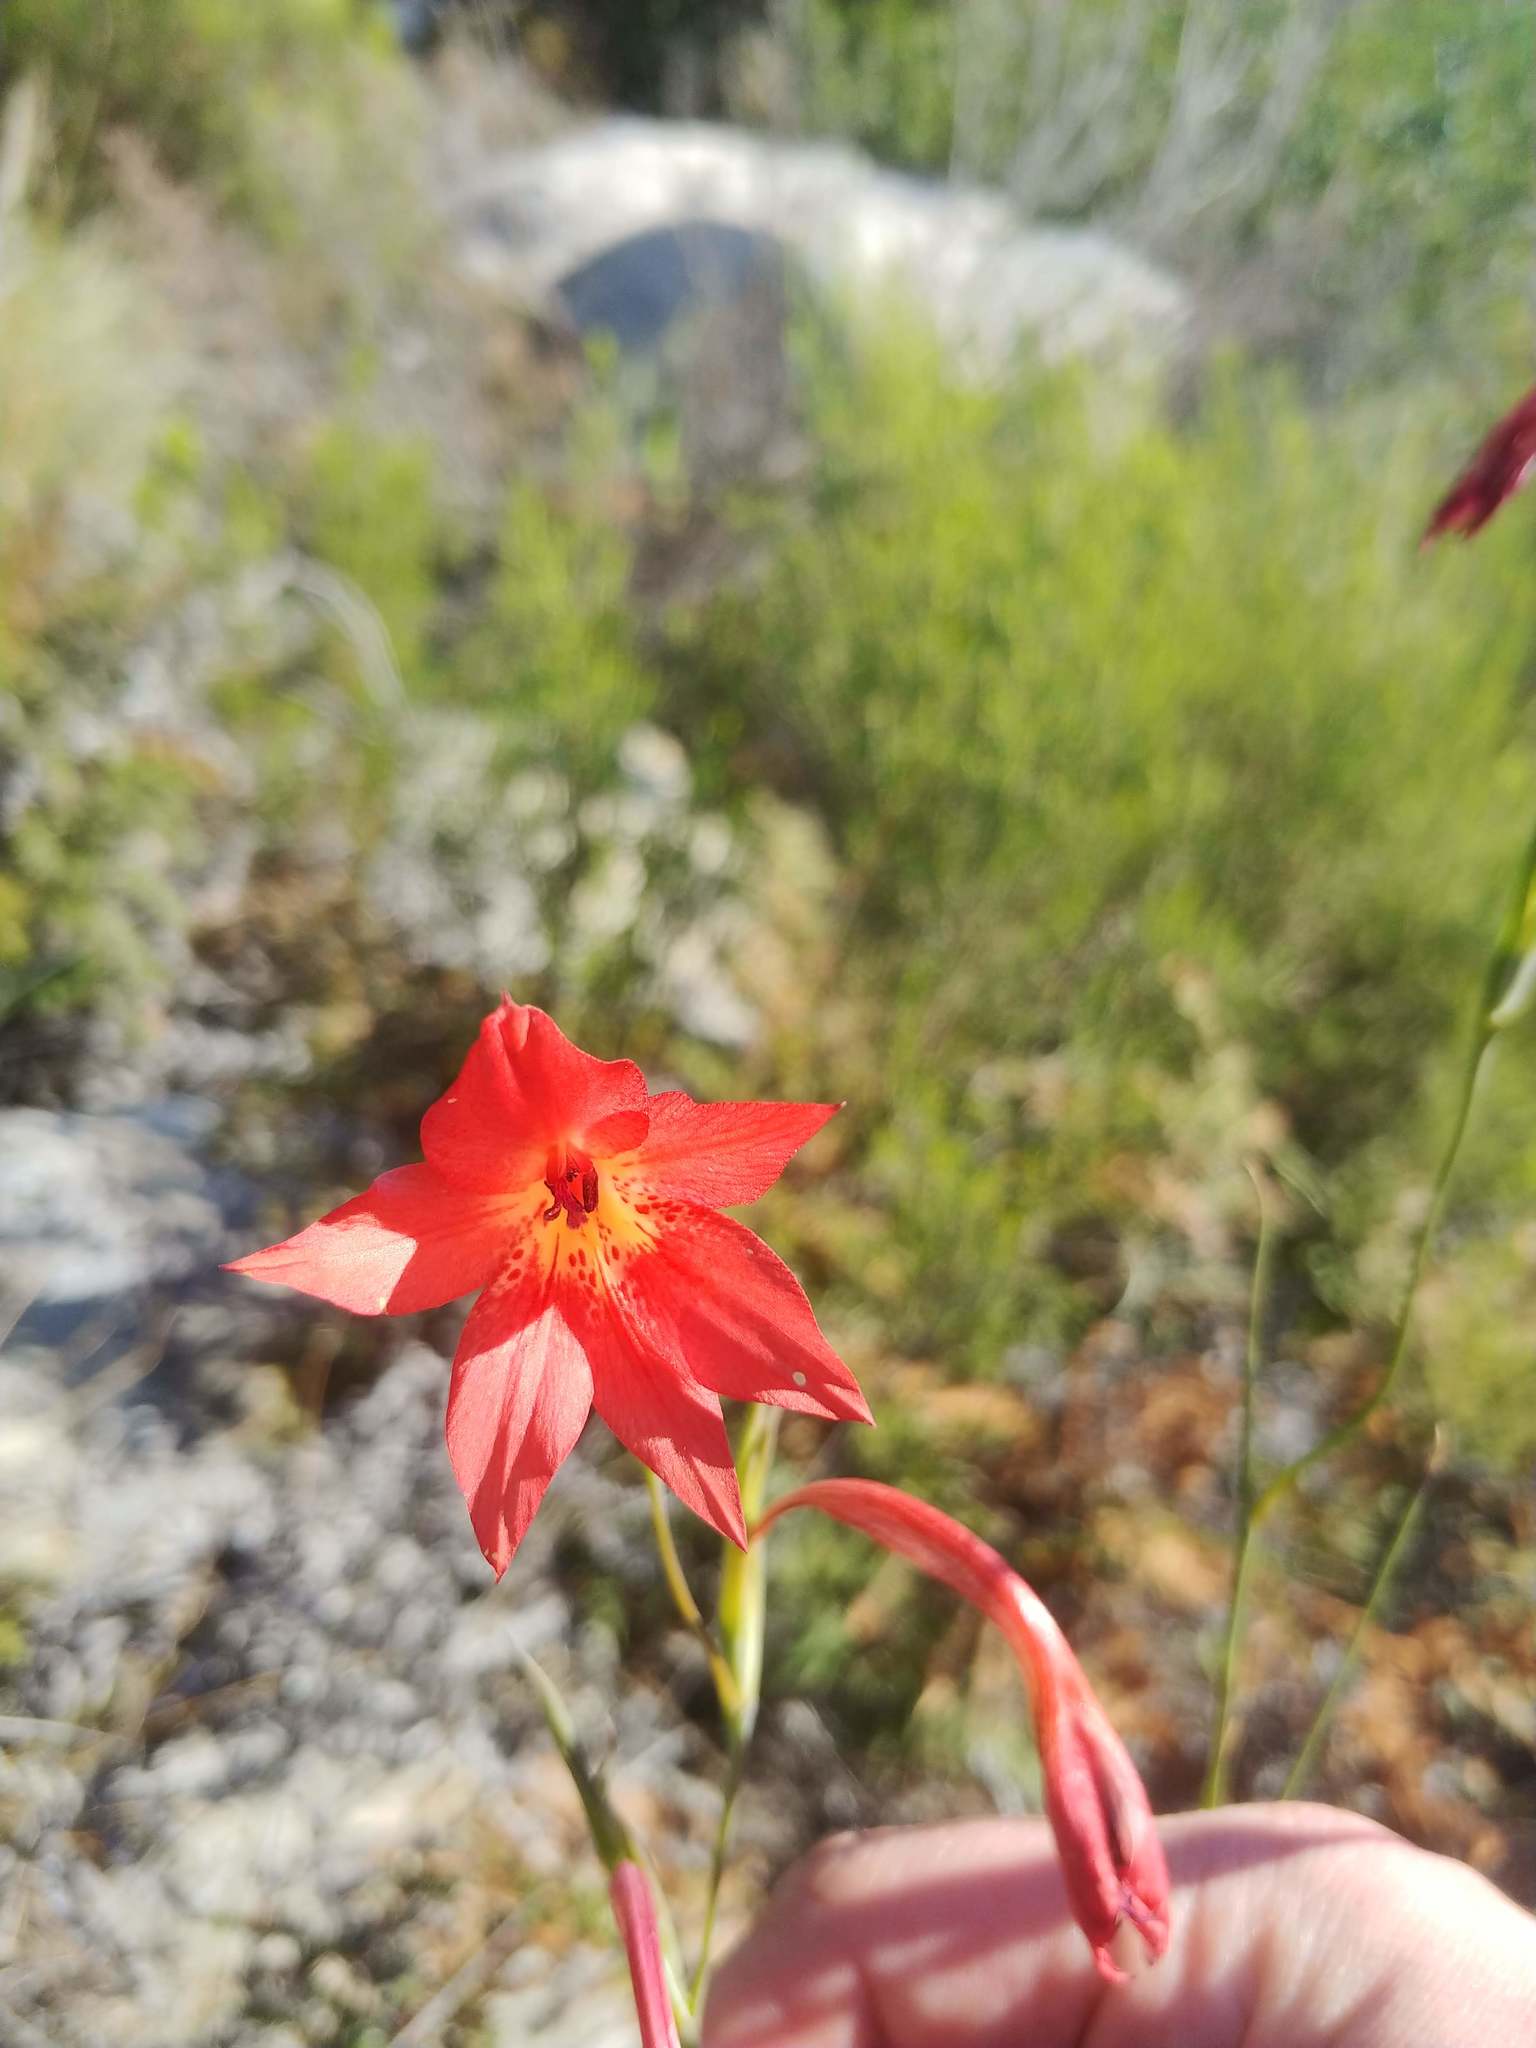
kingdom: Plantae
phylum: Tracheophyta
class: Liliopsida
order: Asparagales
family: Iridaceae
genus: Gladiolus
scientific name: Gladiolus priorii
